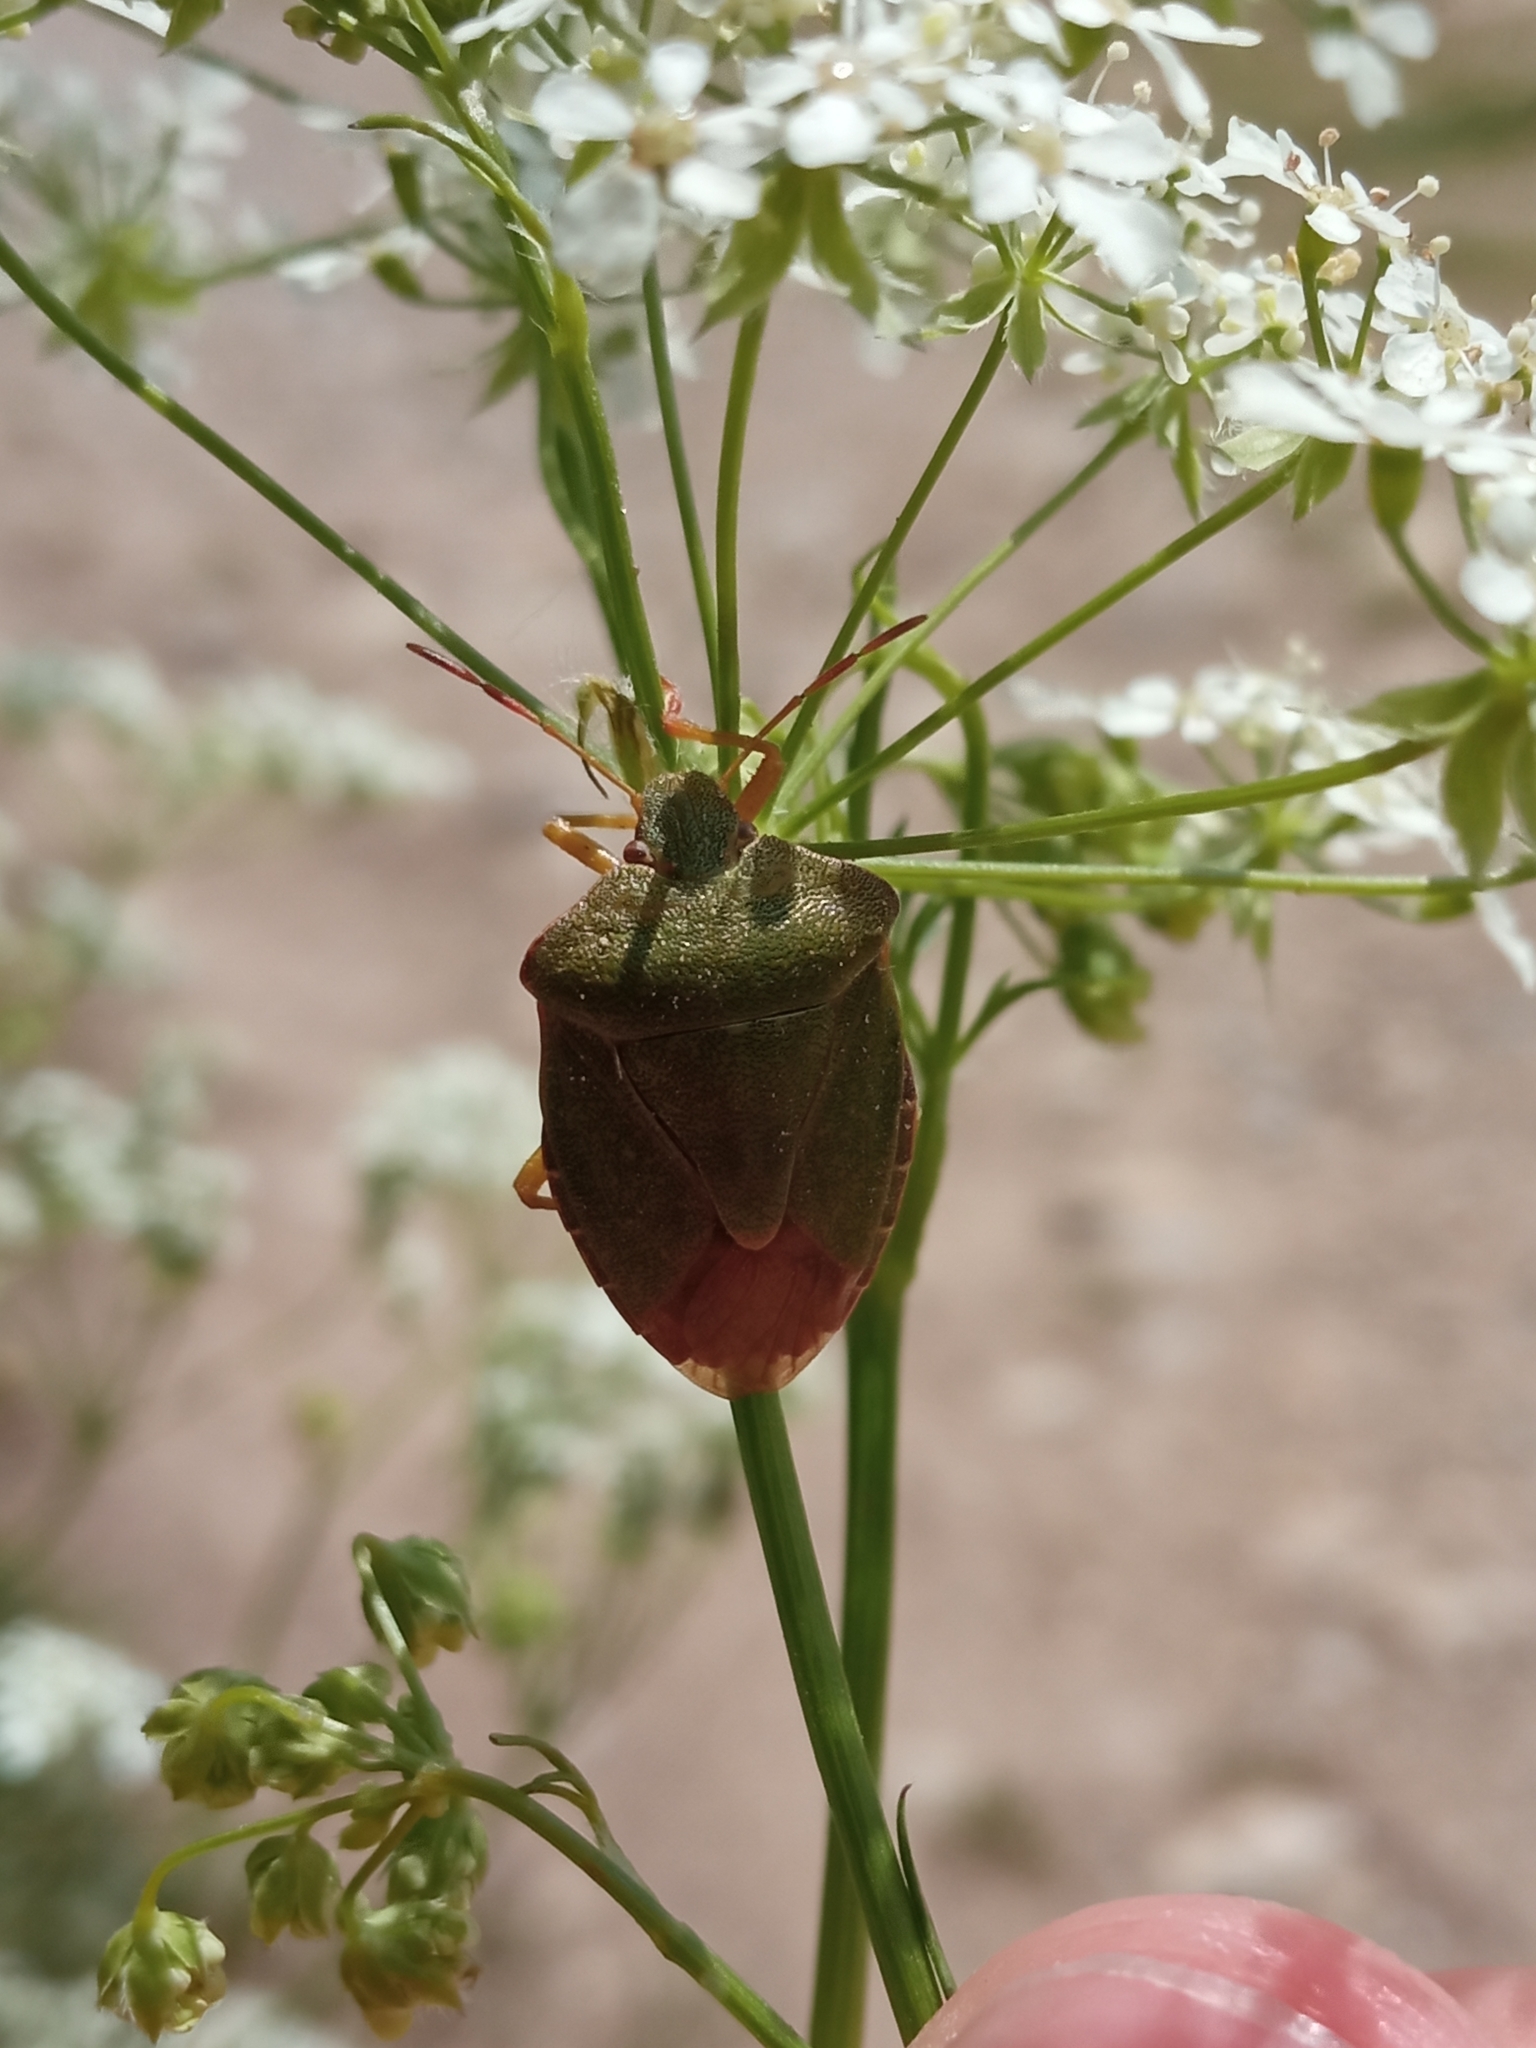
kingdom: Animalia
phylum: Arthropoda
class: Insecta
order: Hemiptera
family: Pentatomidae
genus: Palomena
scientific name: Palomena prasina
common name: Green shieldbug
